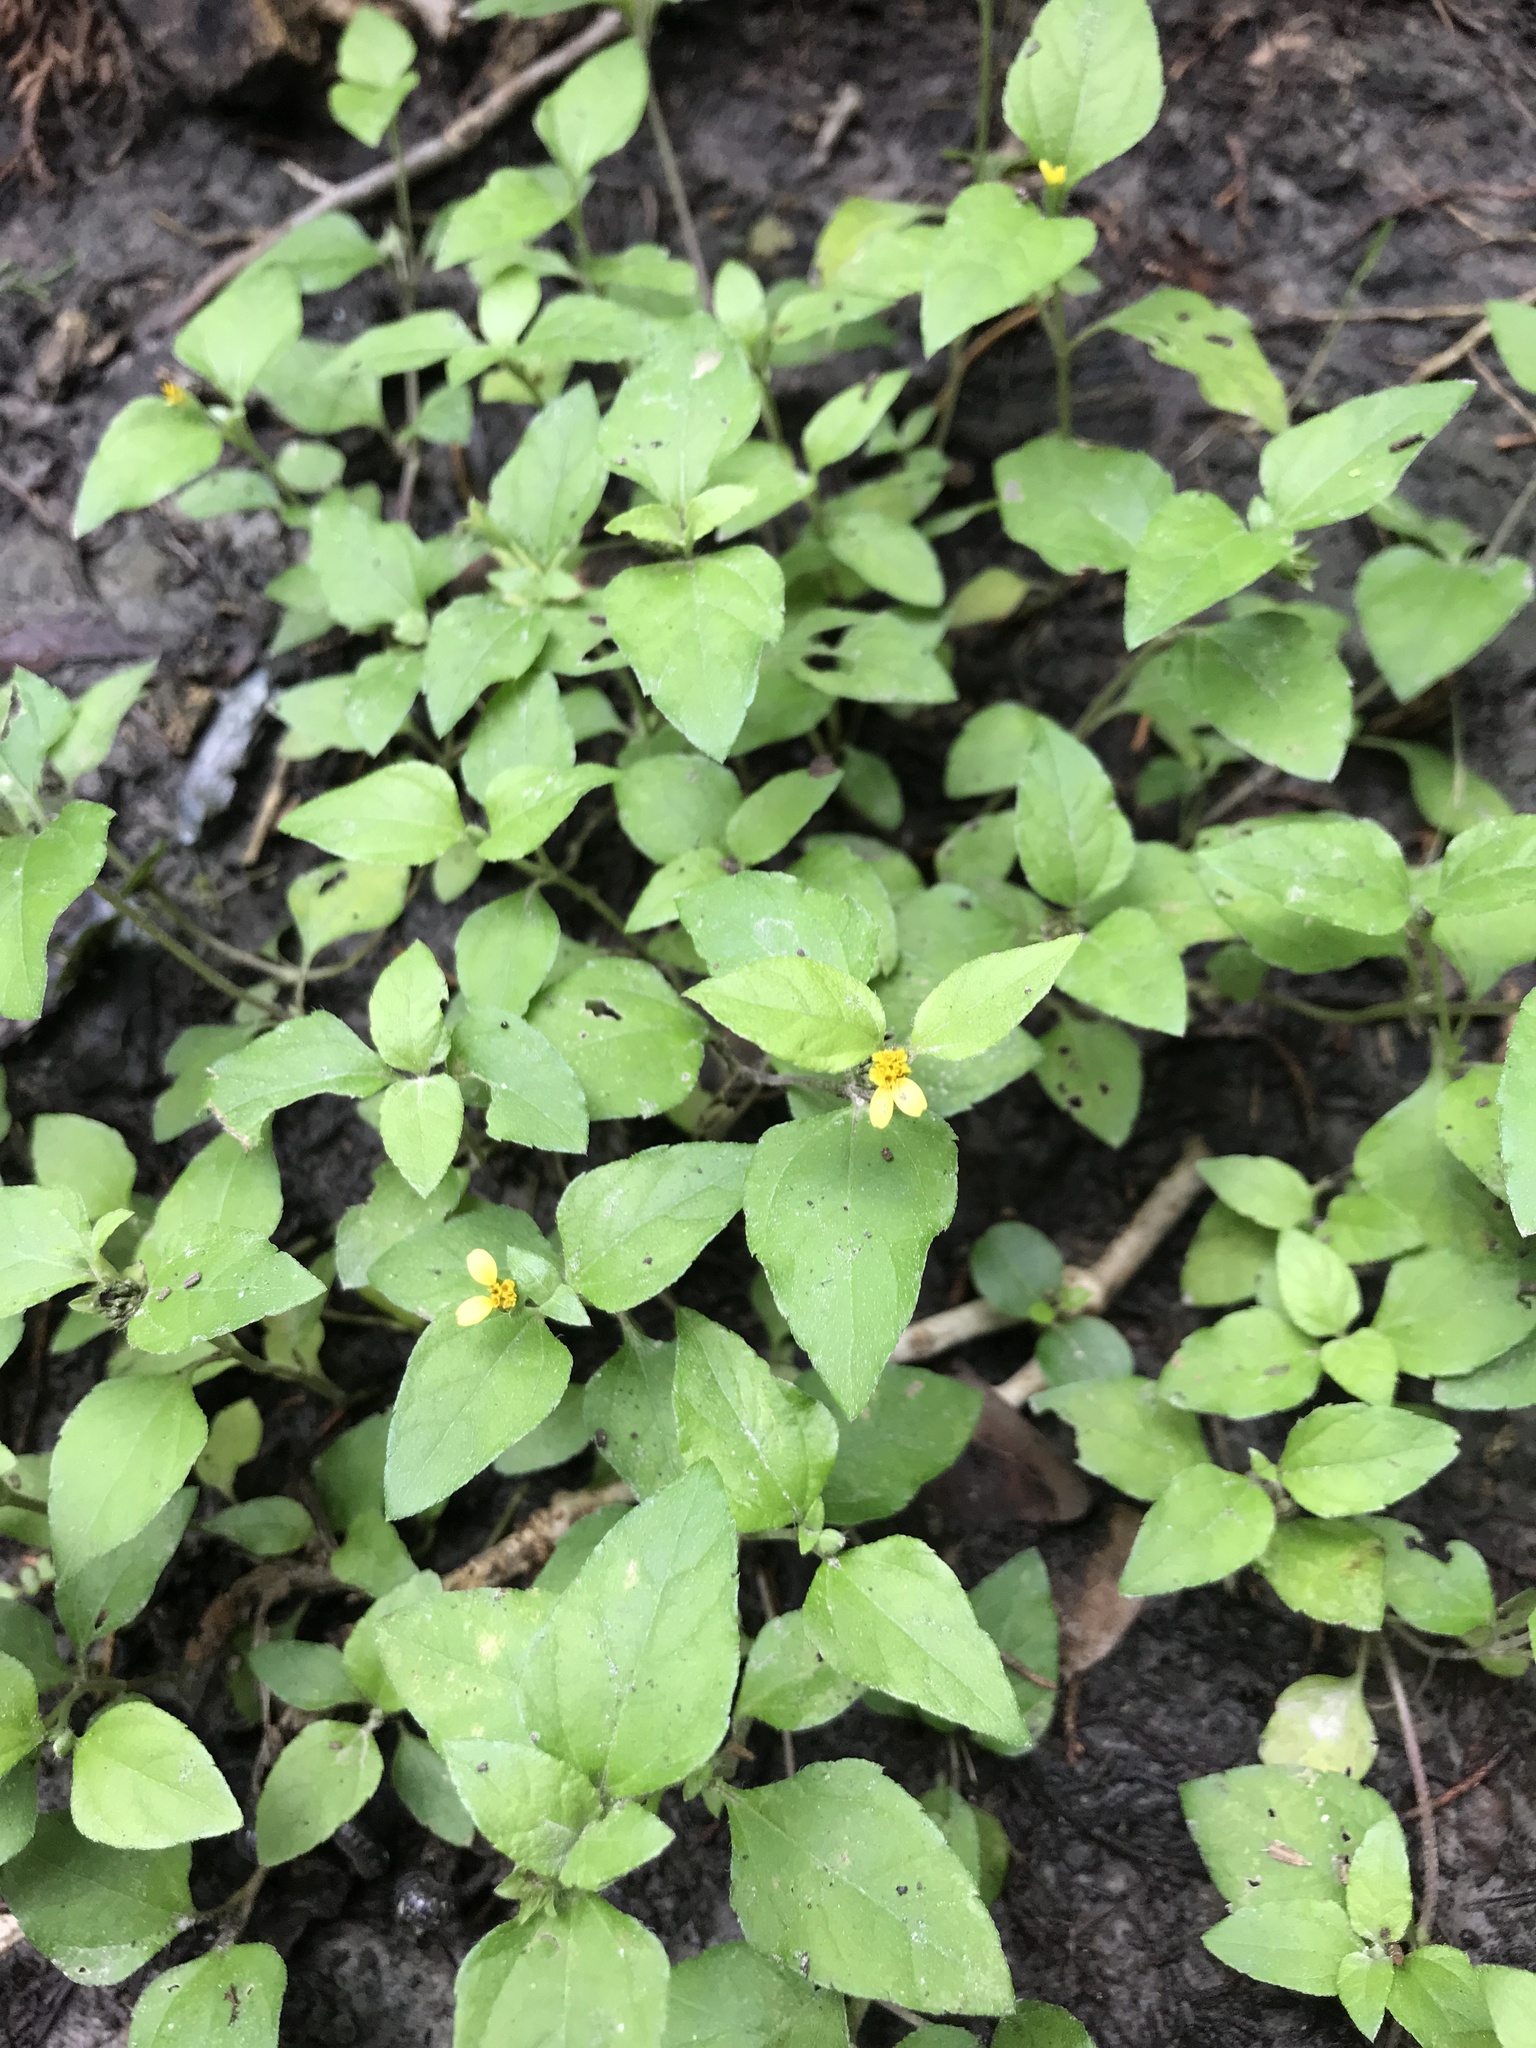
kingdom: Plantae
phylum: Tracheophyta
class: Magnoliopsida
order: Asterales
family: Asteraceae
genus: Calyptocarpus
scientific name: Calyptocarpus vialis
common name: Straggler daisy
